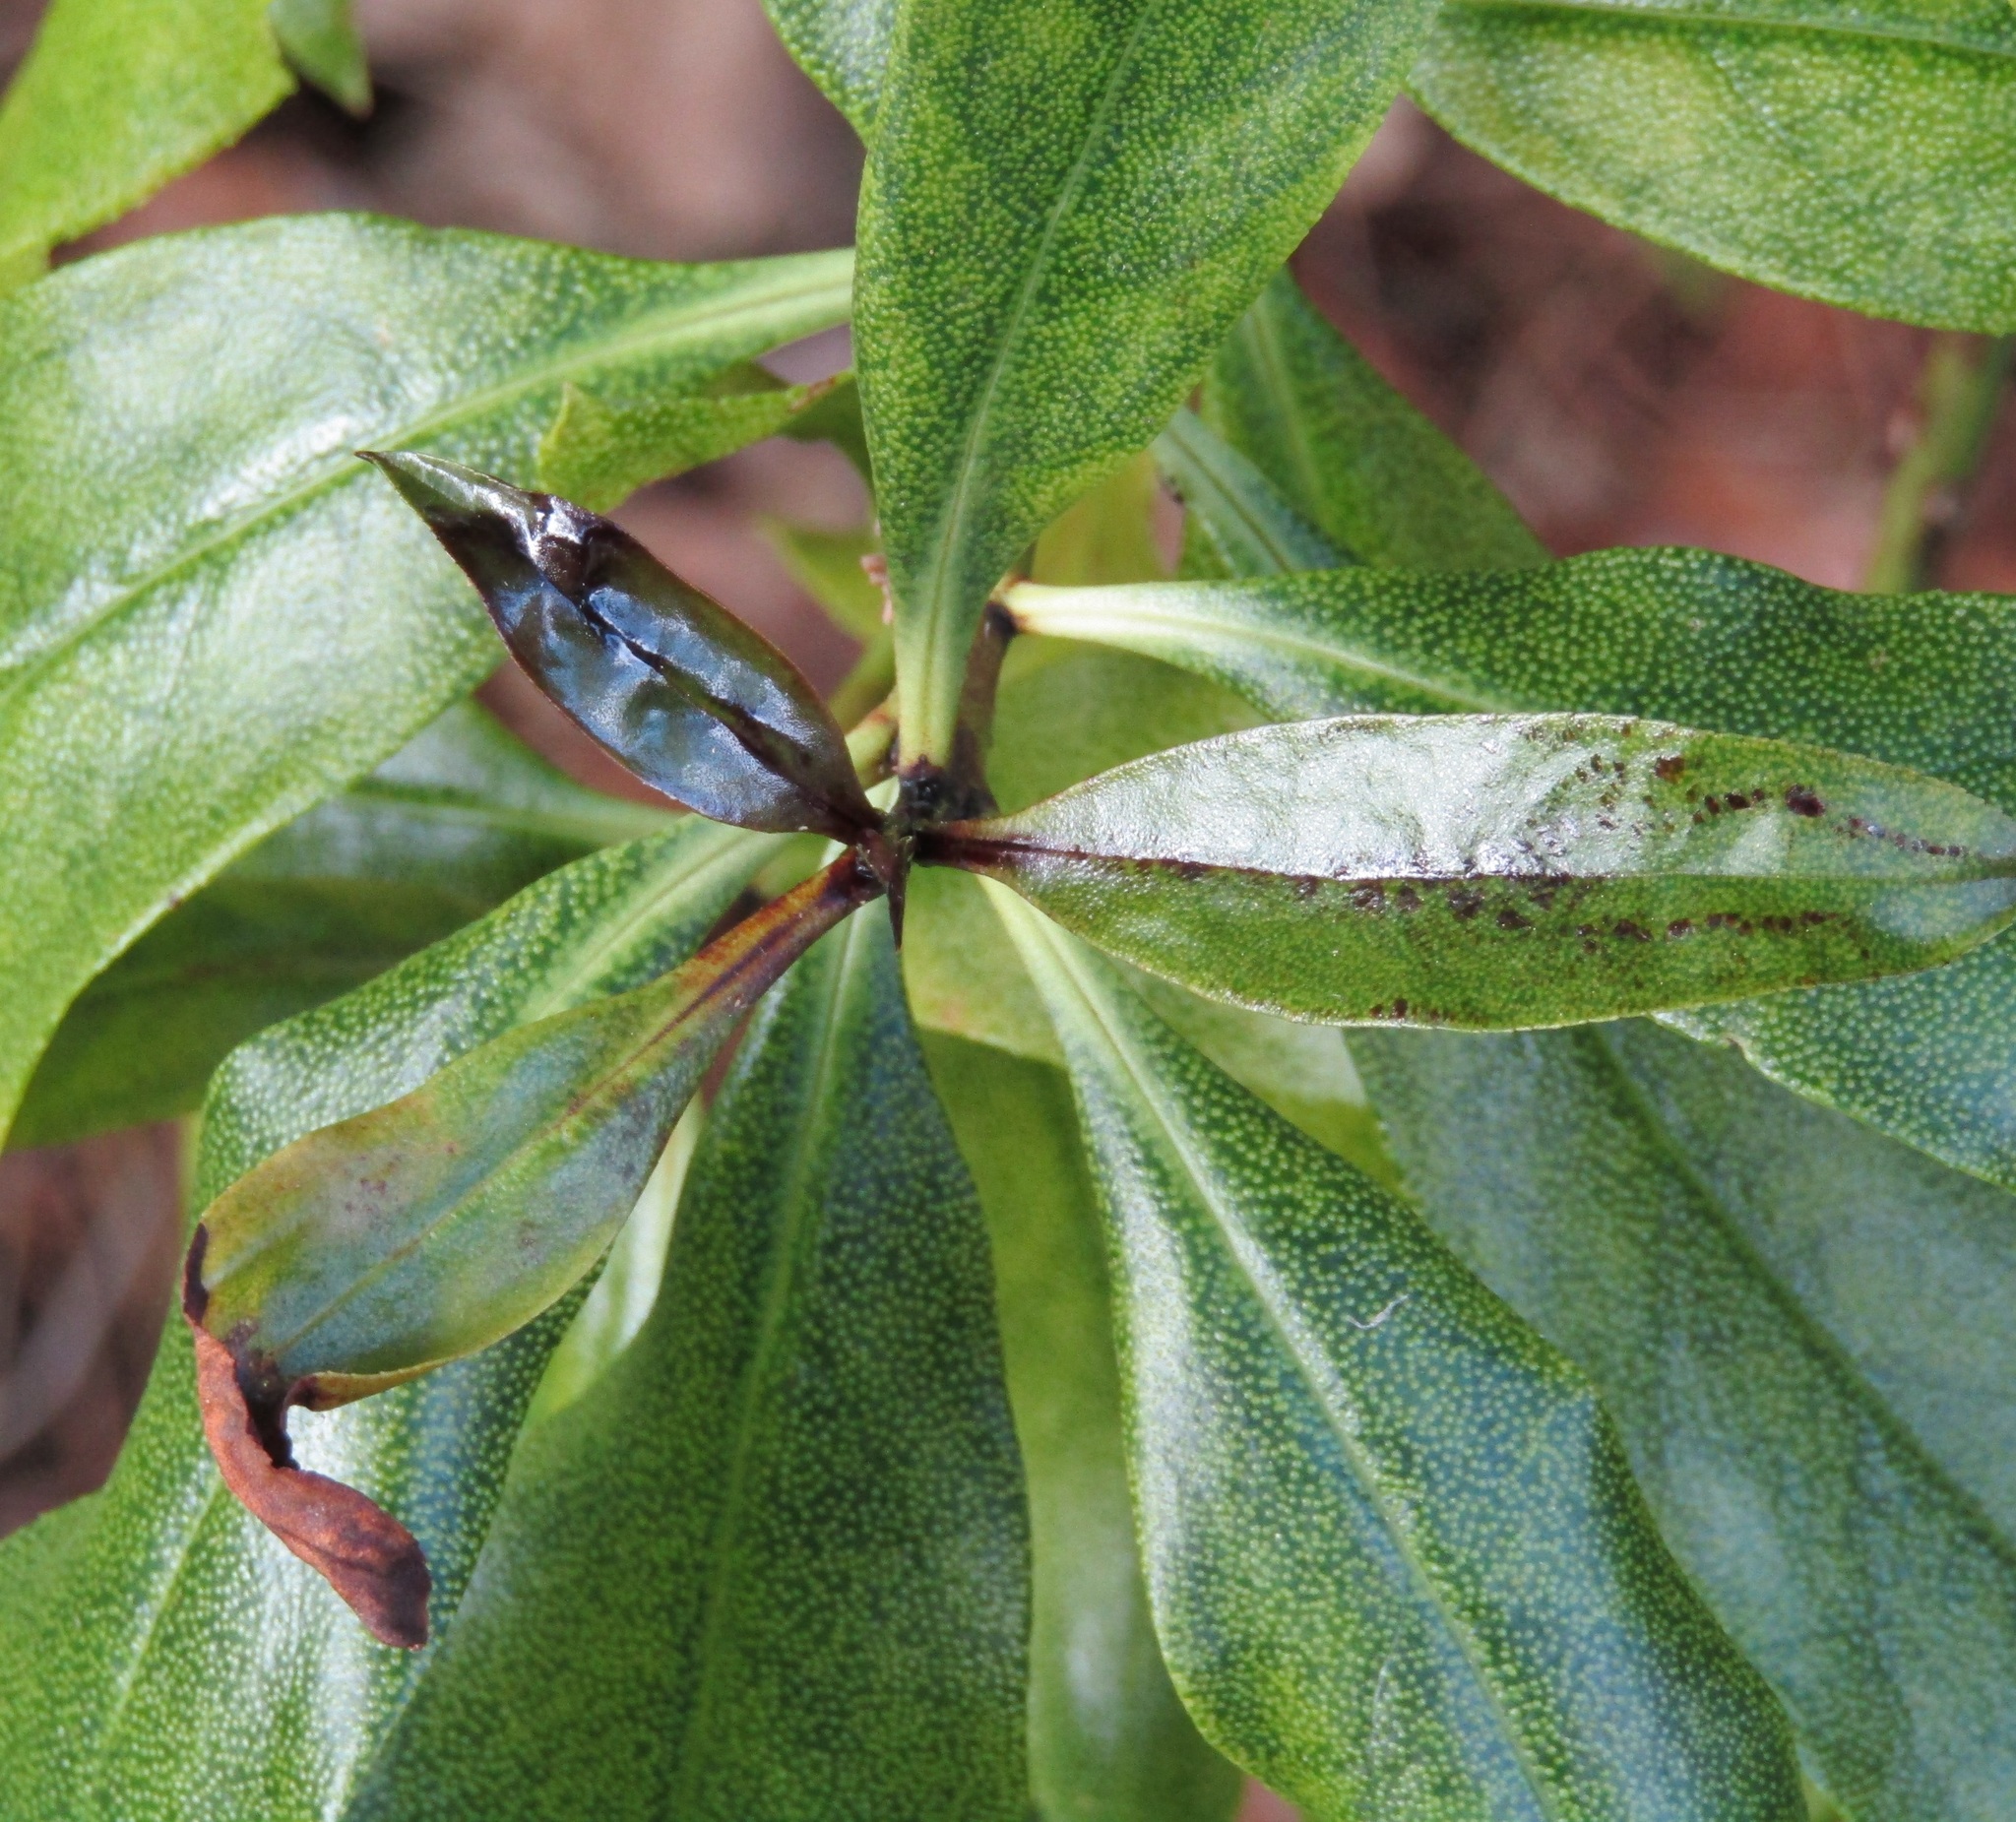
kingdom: Plantae
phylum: Tracheophyta
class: Magnoliopsida
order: Lamiales
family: Scrophulariaceae
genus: Myoporum
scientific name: Myoporum laetum
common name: Ngaio tree
